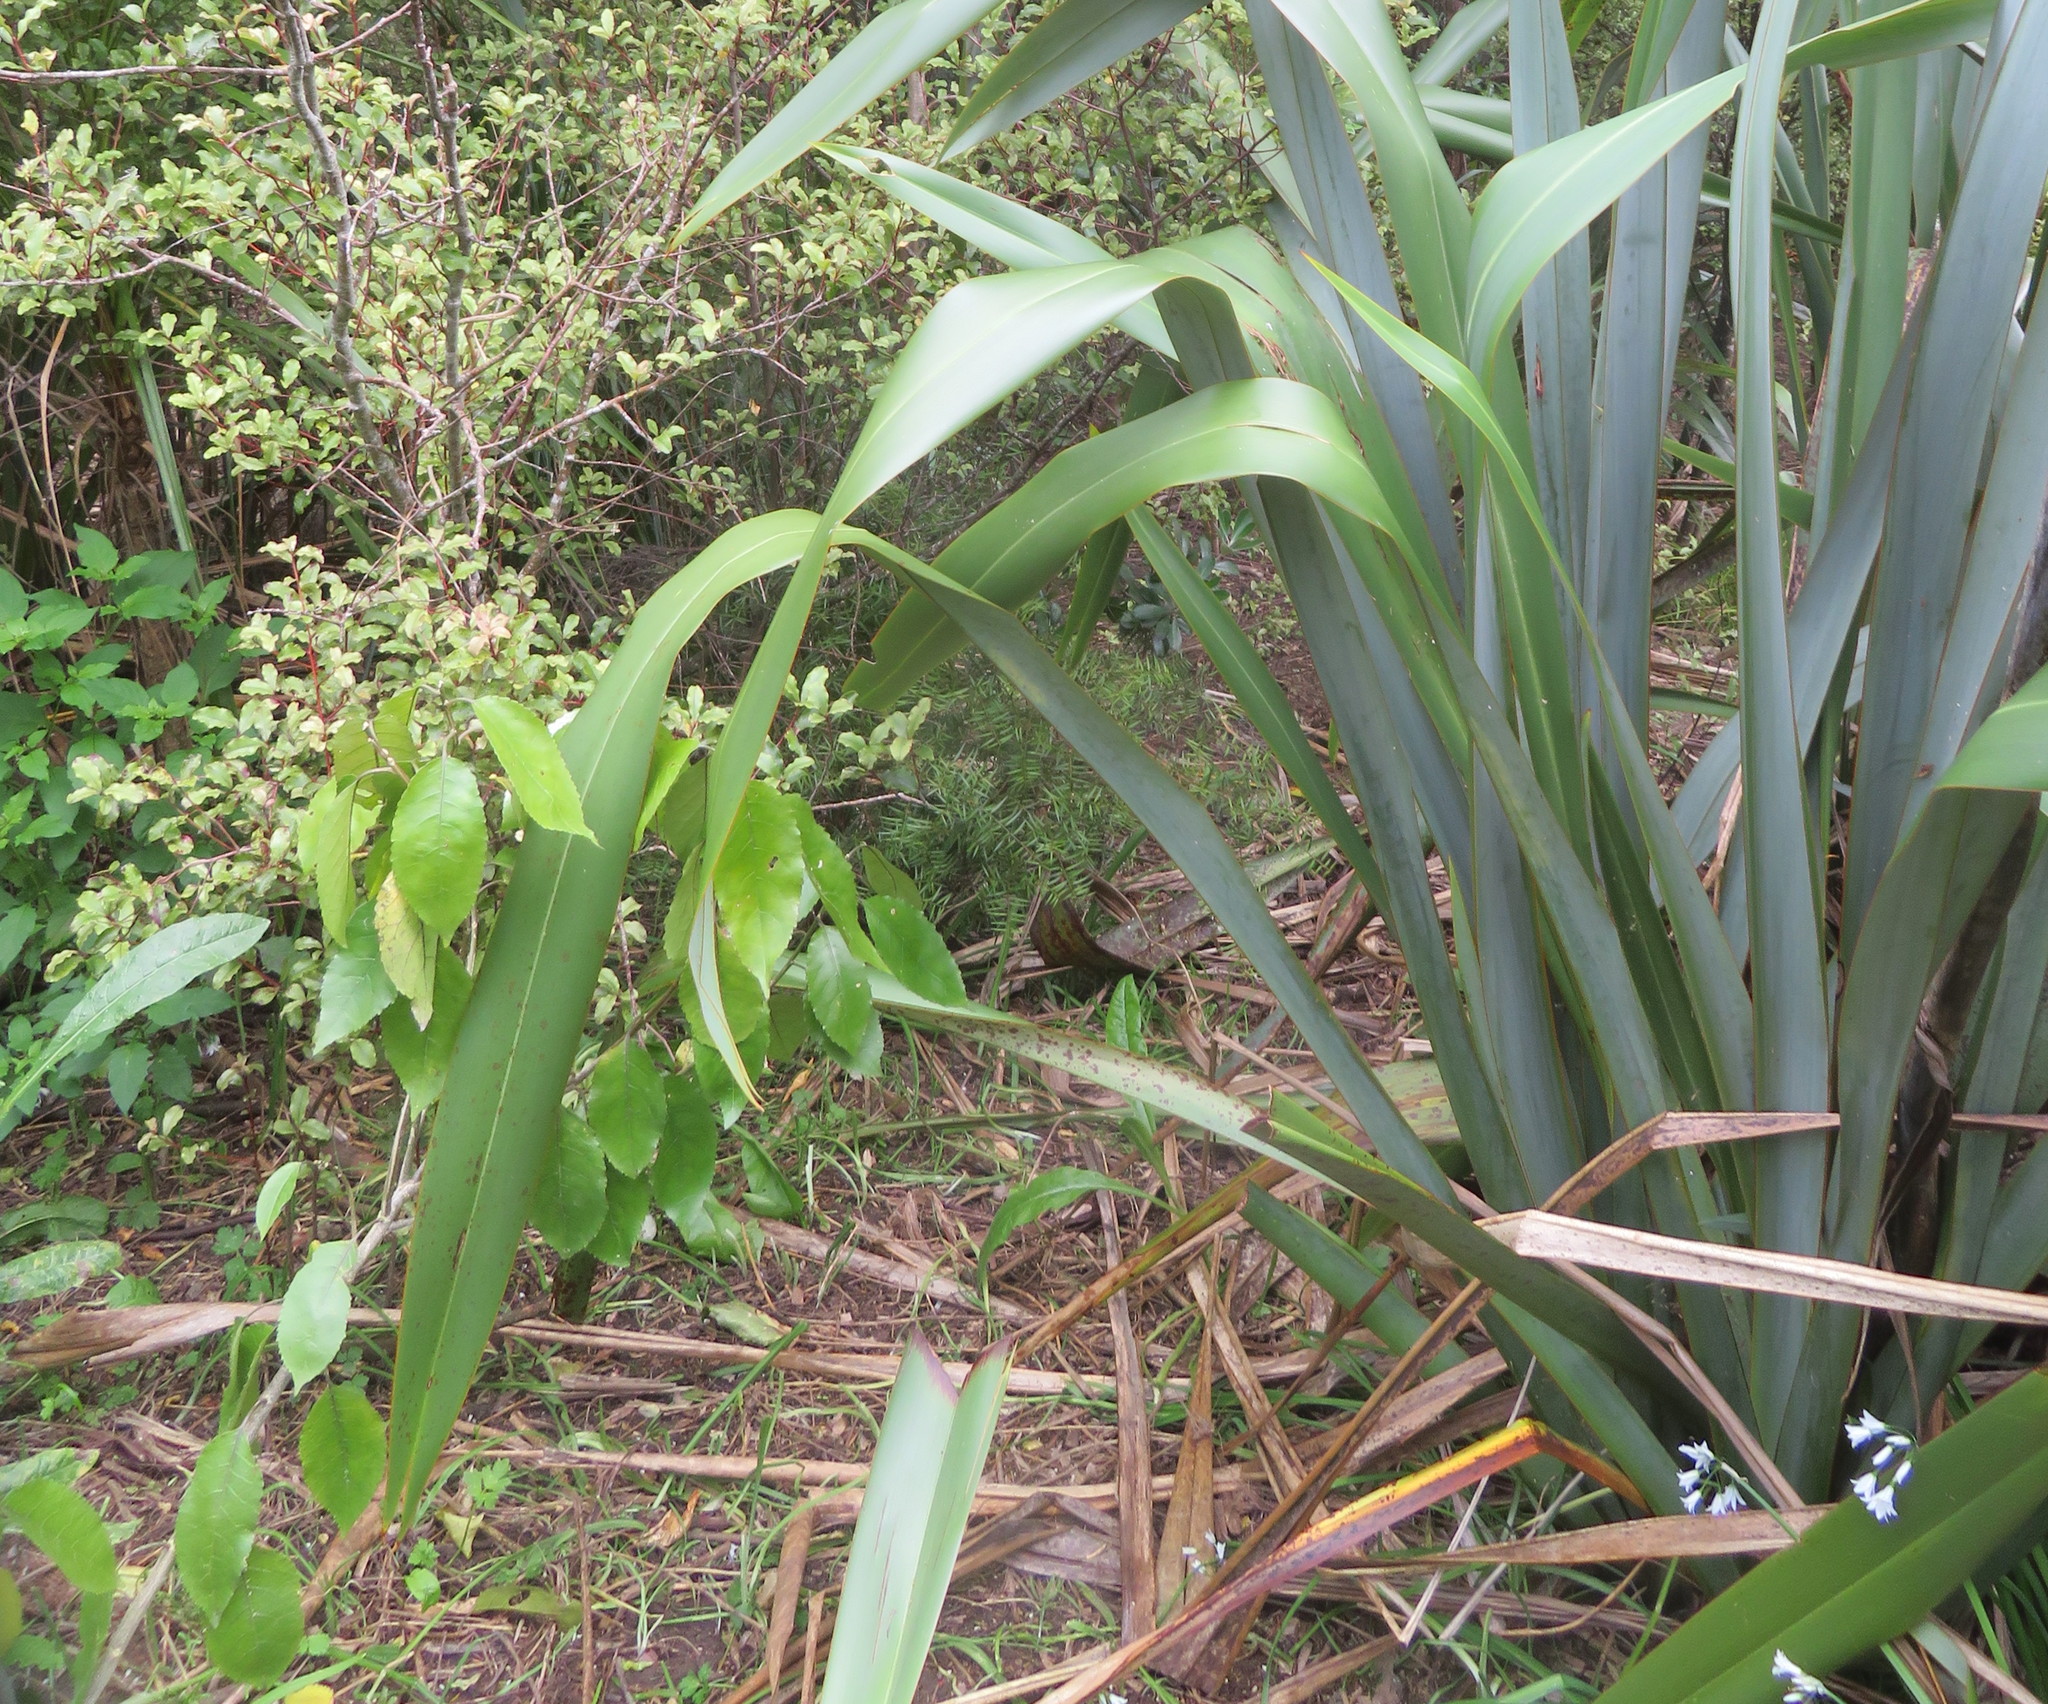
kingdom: Plantae
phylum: Tracheophyta
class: Pinopsida
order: Pinales
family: Podocarpaceae
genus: Podocarpus
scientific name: Podocarpus totara
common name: Totara
